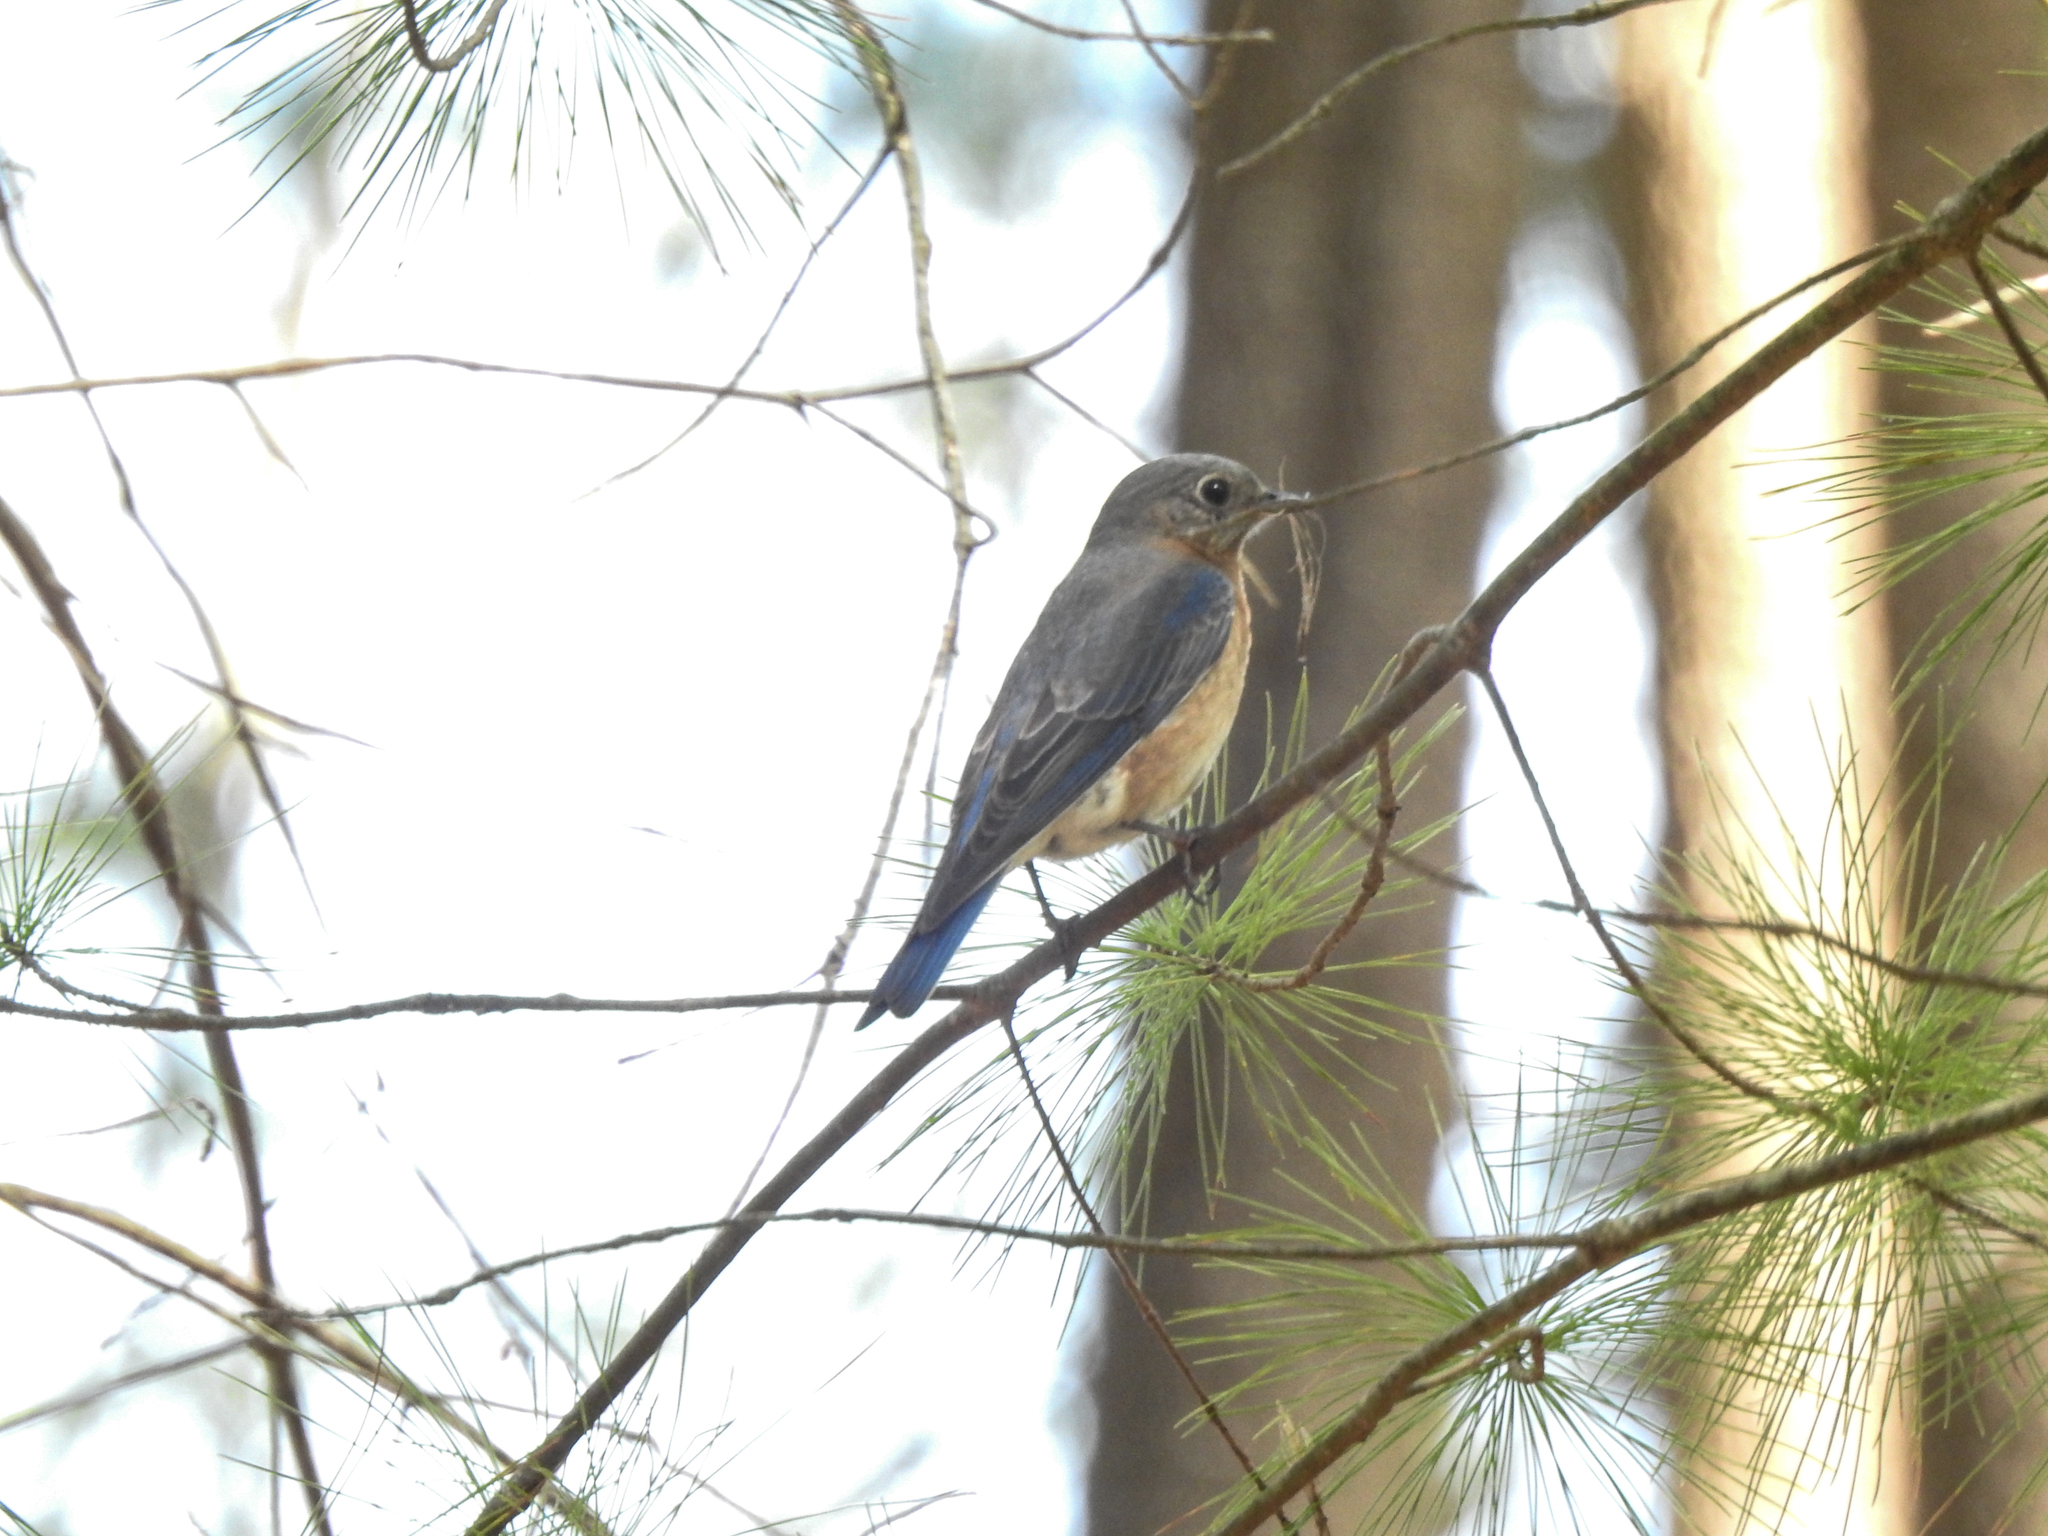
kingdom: Animalia
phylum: Chordata
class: Aves
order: Passeriformes
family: Turdidae
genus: Sialia
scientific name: Sialia sialis
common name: Eastern bluebird
